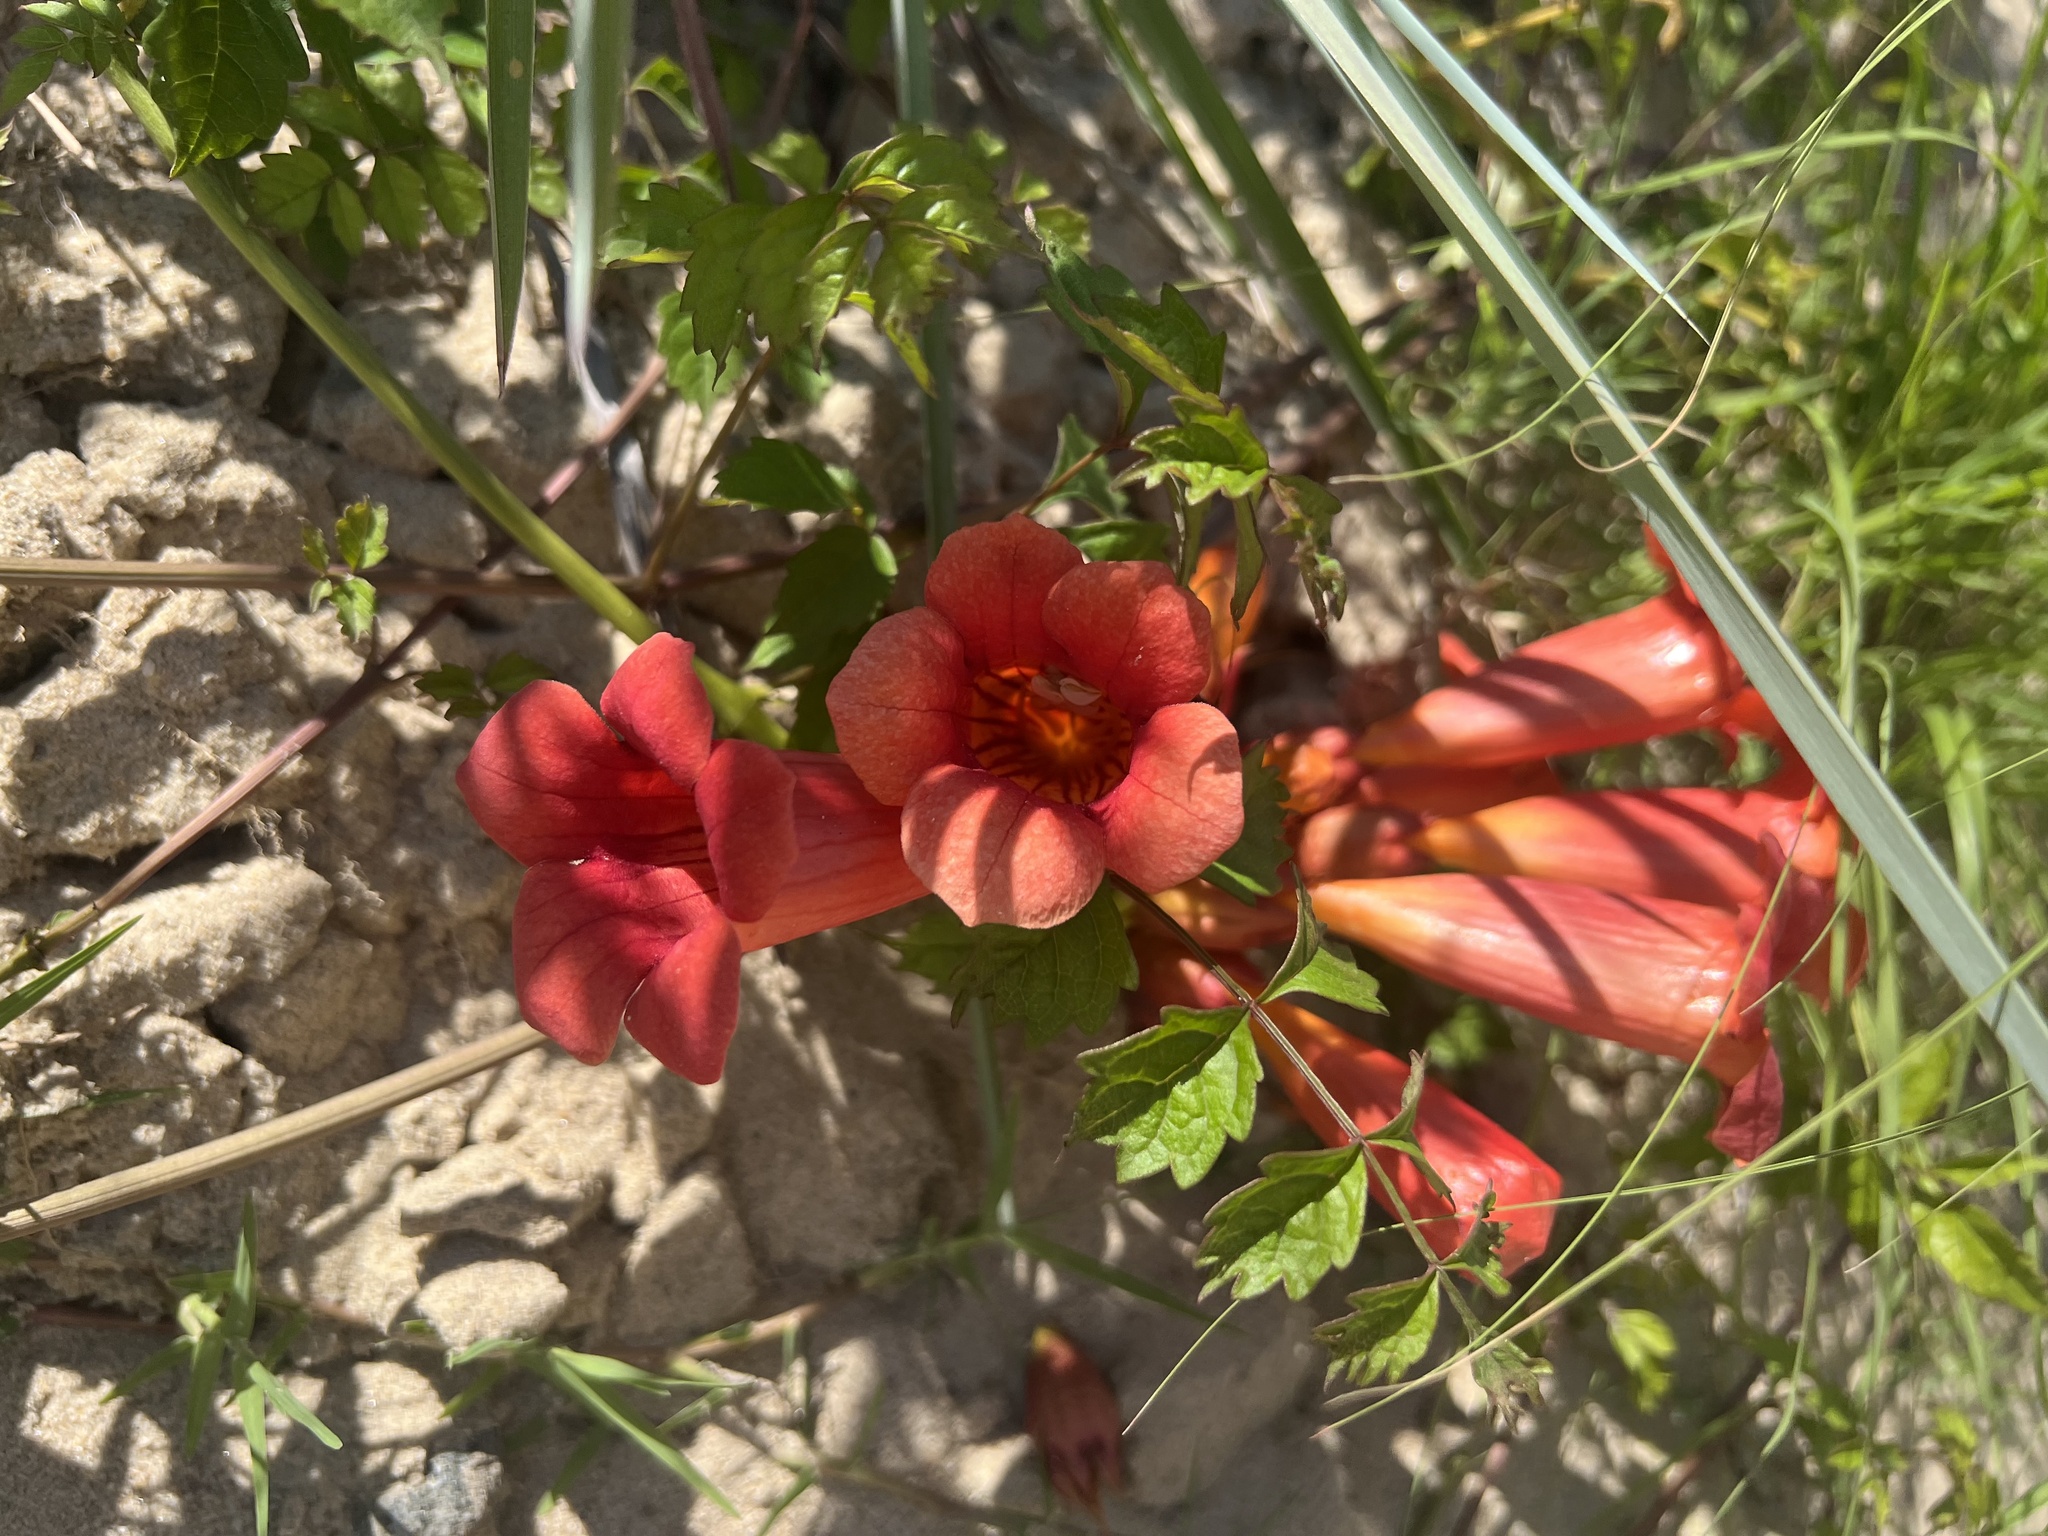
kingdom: Plantae
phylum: Tracheophyta
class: Magnoliopsida
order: Lamiales
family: Bignoniaceae
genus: Campsis
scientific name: Campsis radicans
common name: Trumpet-creeper
